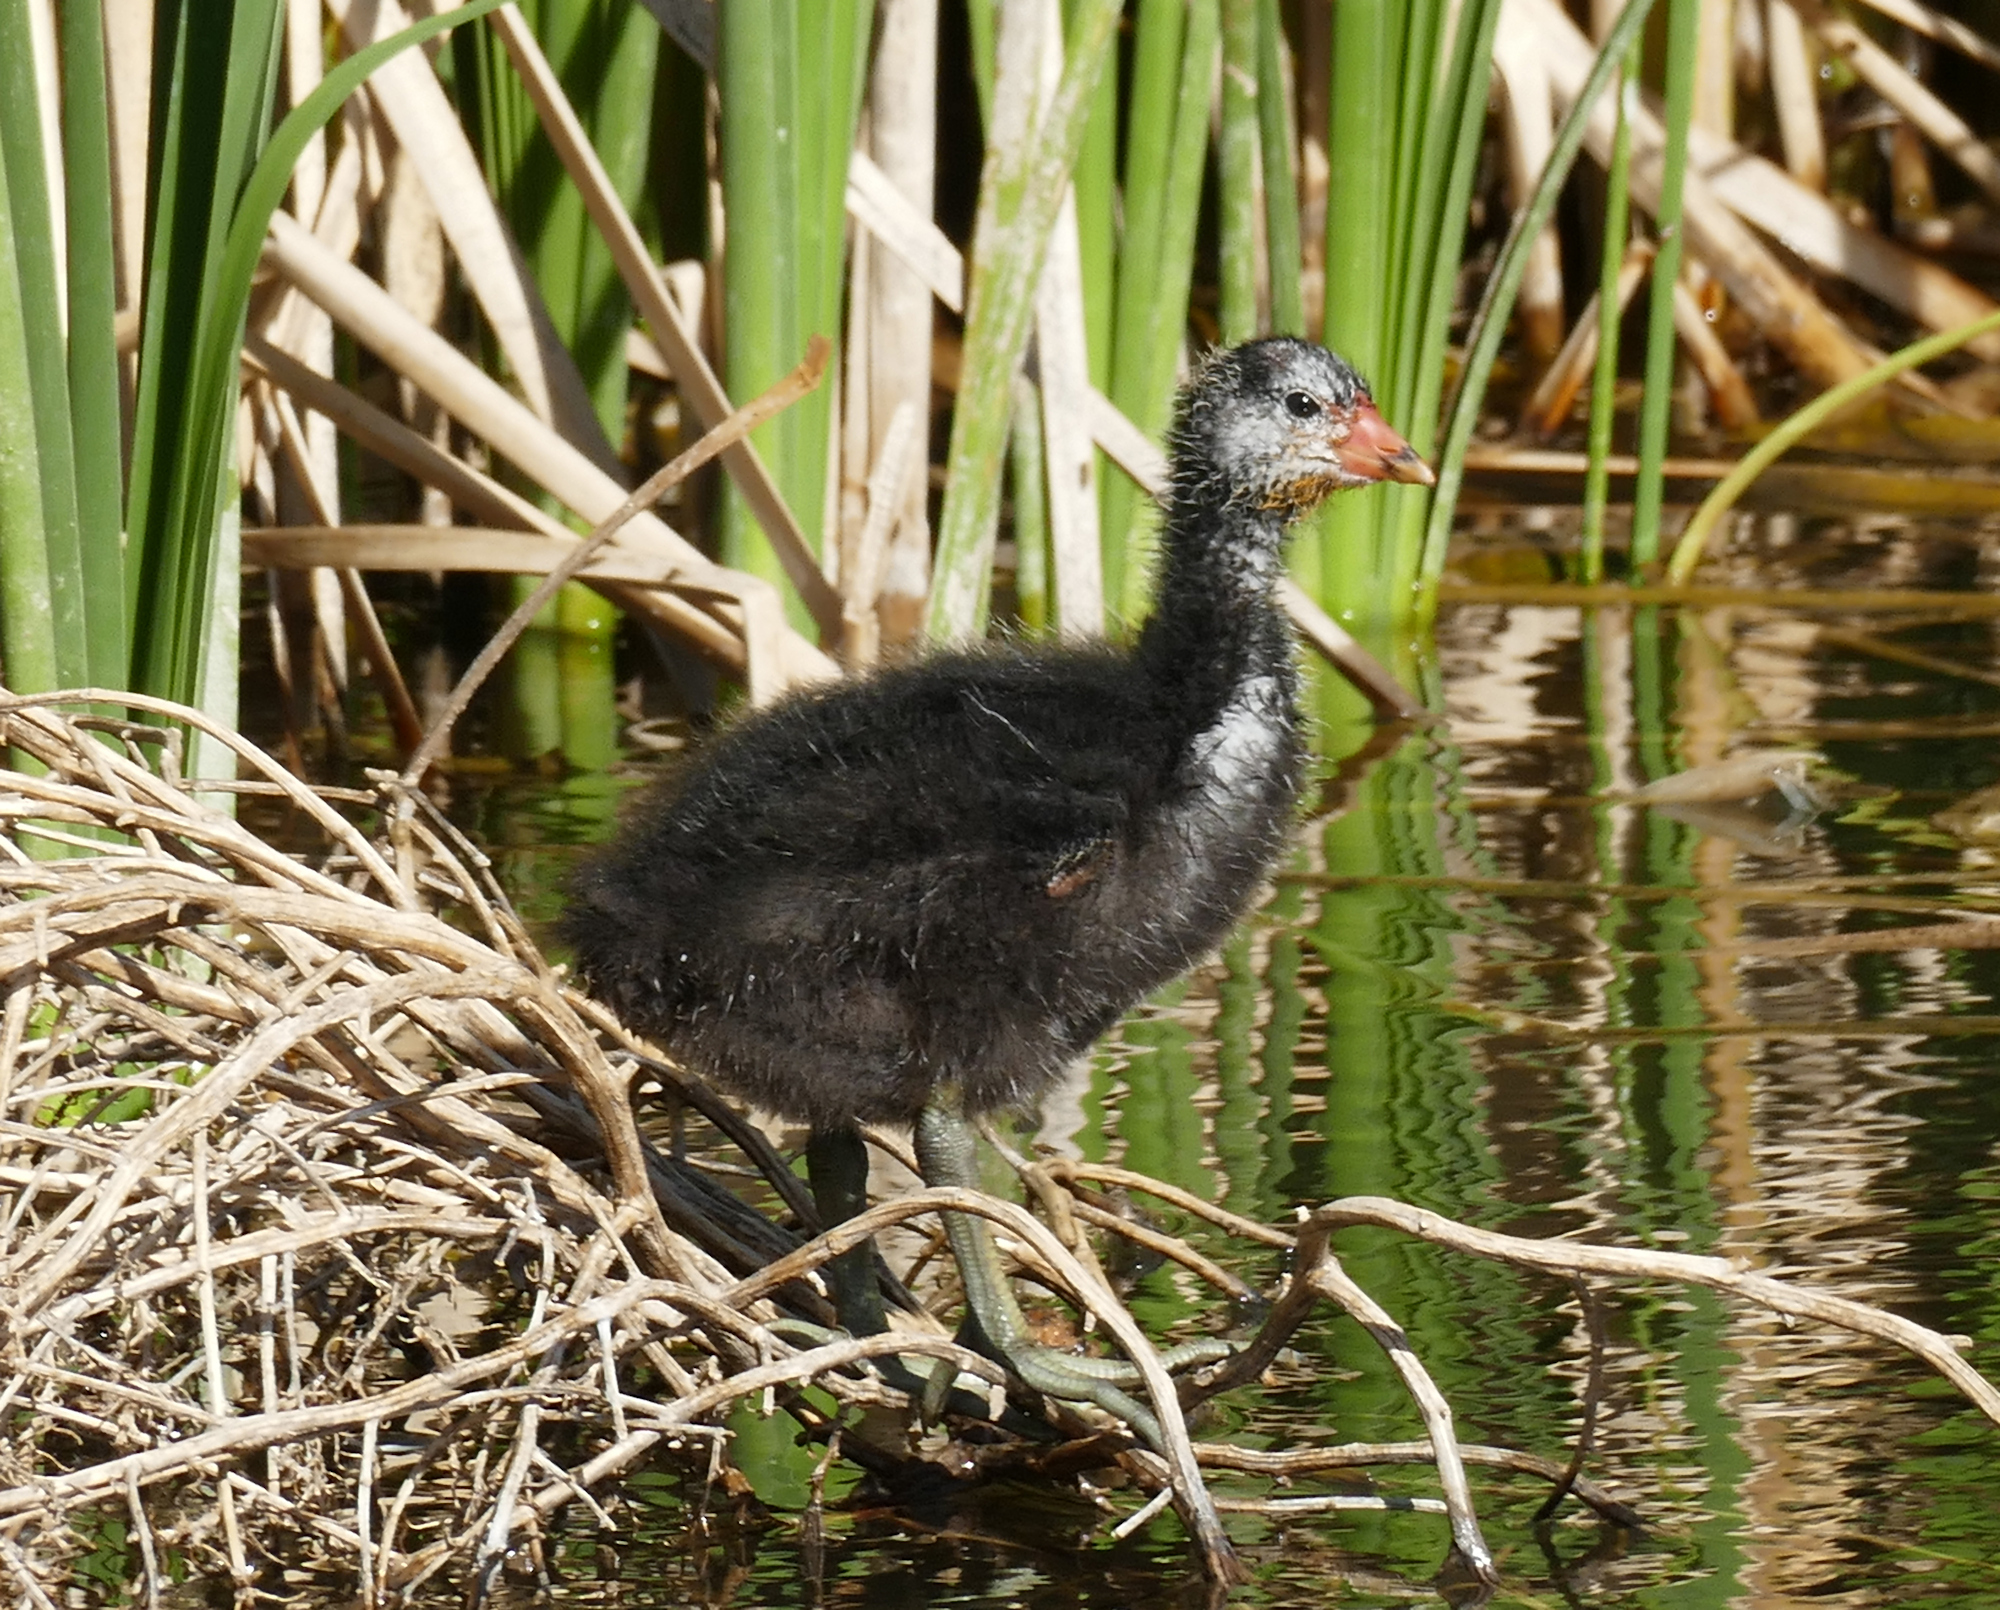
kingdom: Animalia
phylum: Chordata
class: Aves
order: Gruiformes
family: Rallidae
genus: Fulica
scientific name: Fulica americana
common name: American coot
